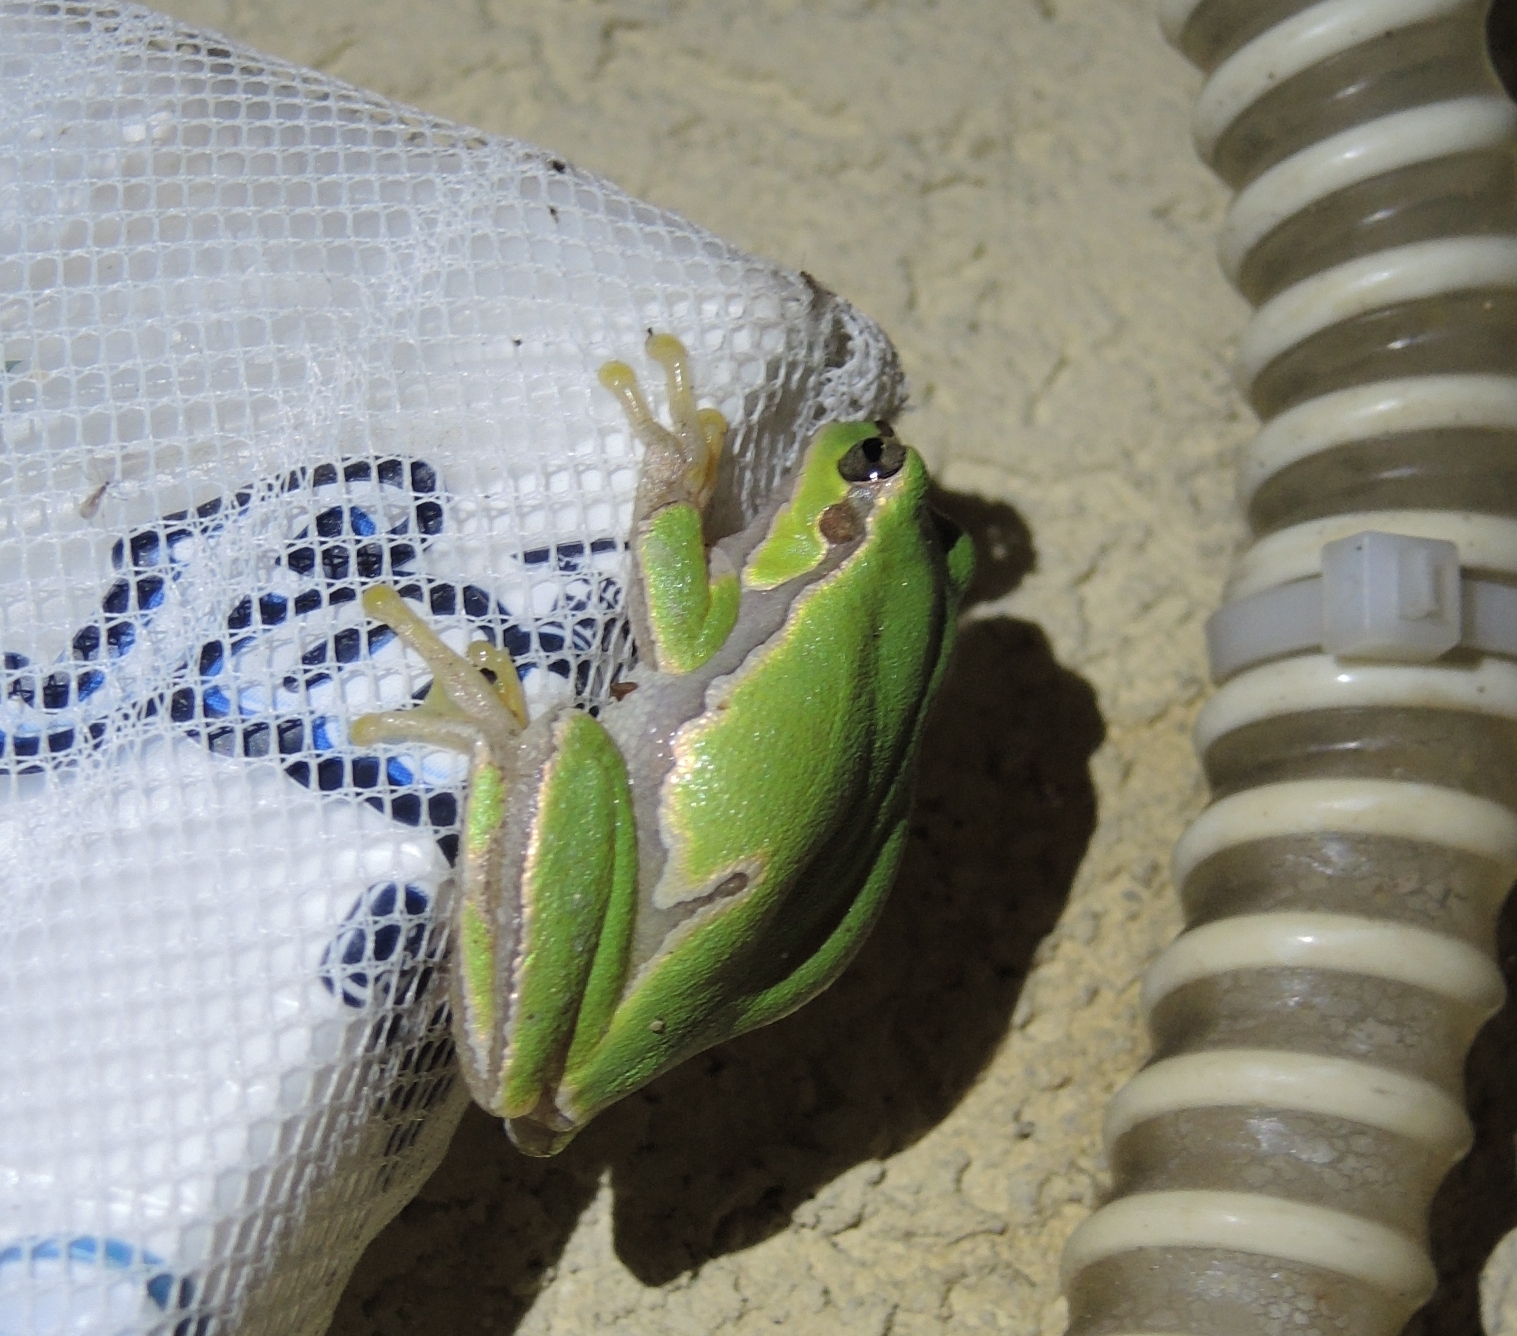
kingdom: Animalia
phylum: Chordata
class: Amphibia
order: Anura
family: Hylidae
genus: Hyla
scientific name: Hyla orientalis
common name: Caucasian treefrog
